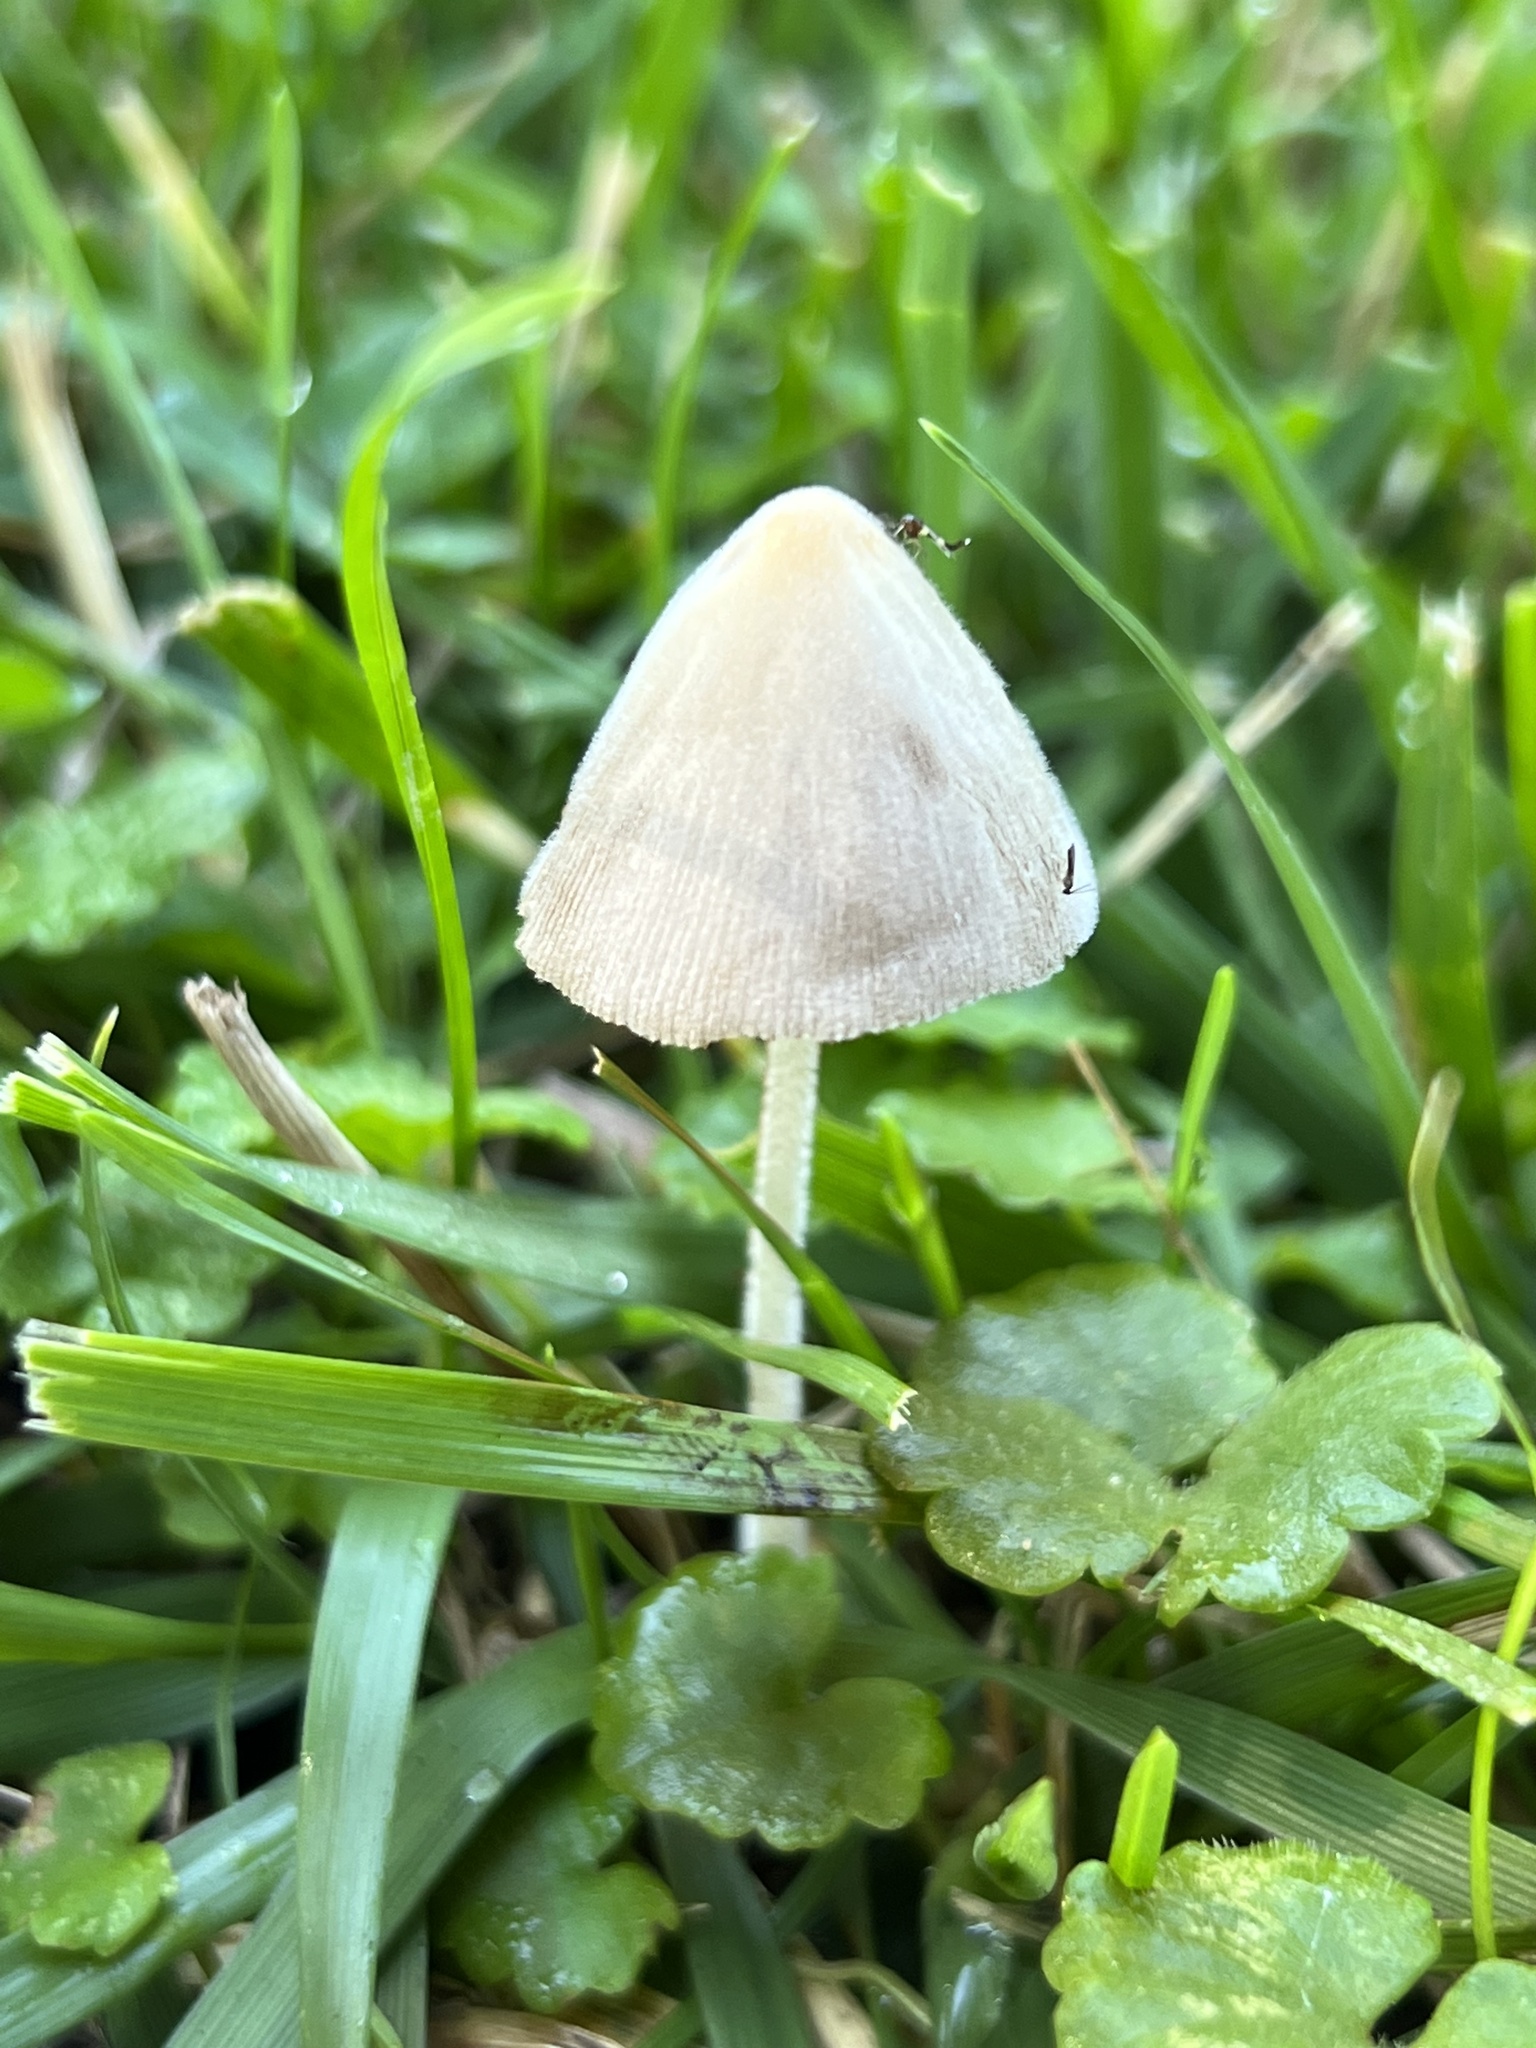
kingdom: Fungi
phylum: Basidiomycota
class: Agaricomycetes
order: Agaricales
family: Bolbitiaceae
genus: Conocybe
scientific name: Conocybe apala
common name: Milky conecap
